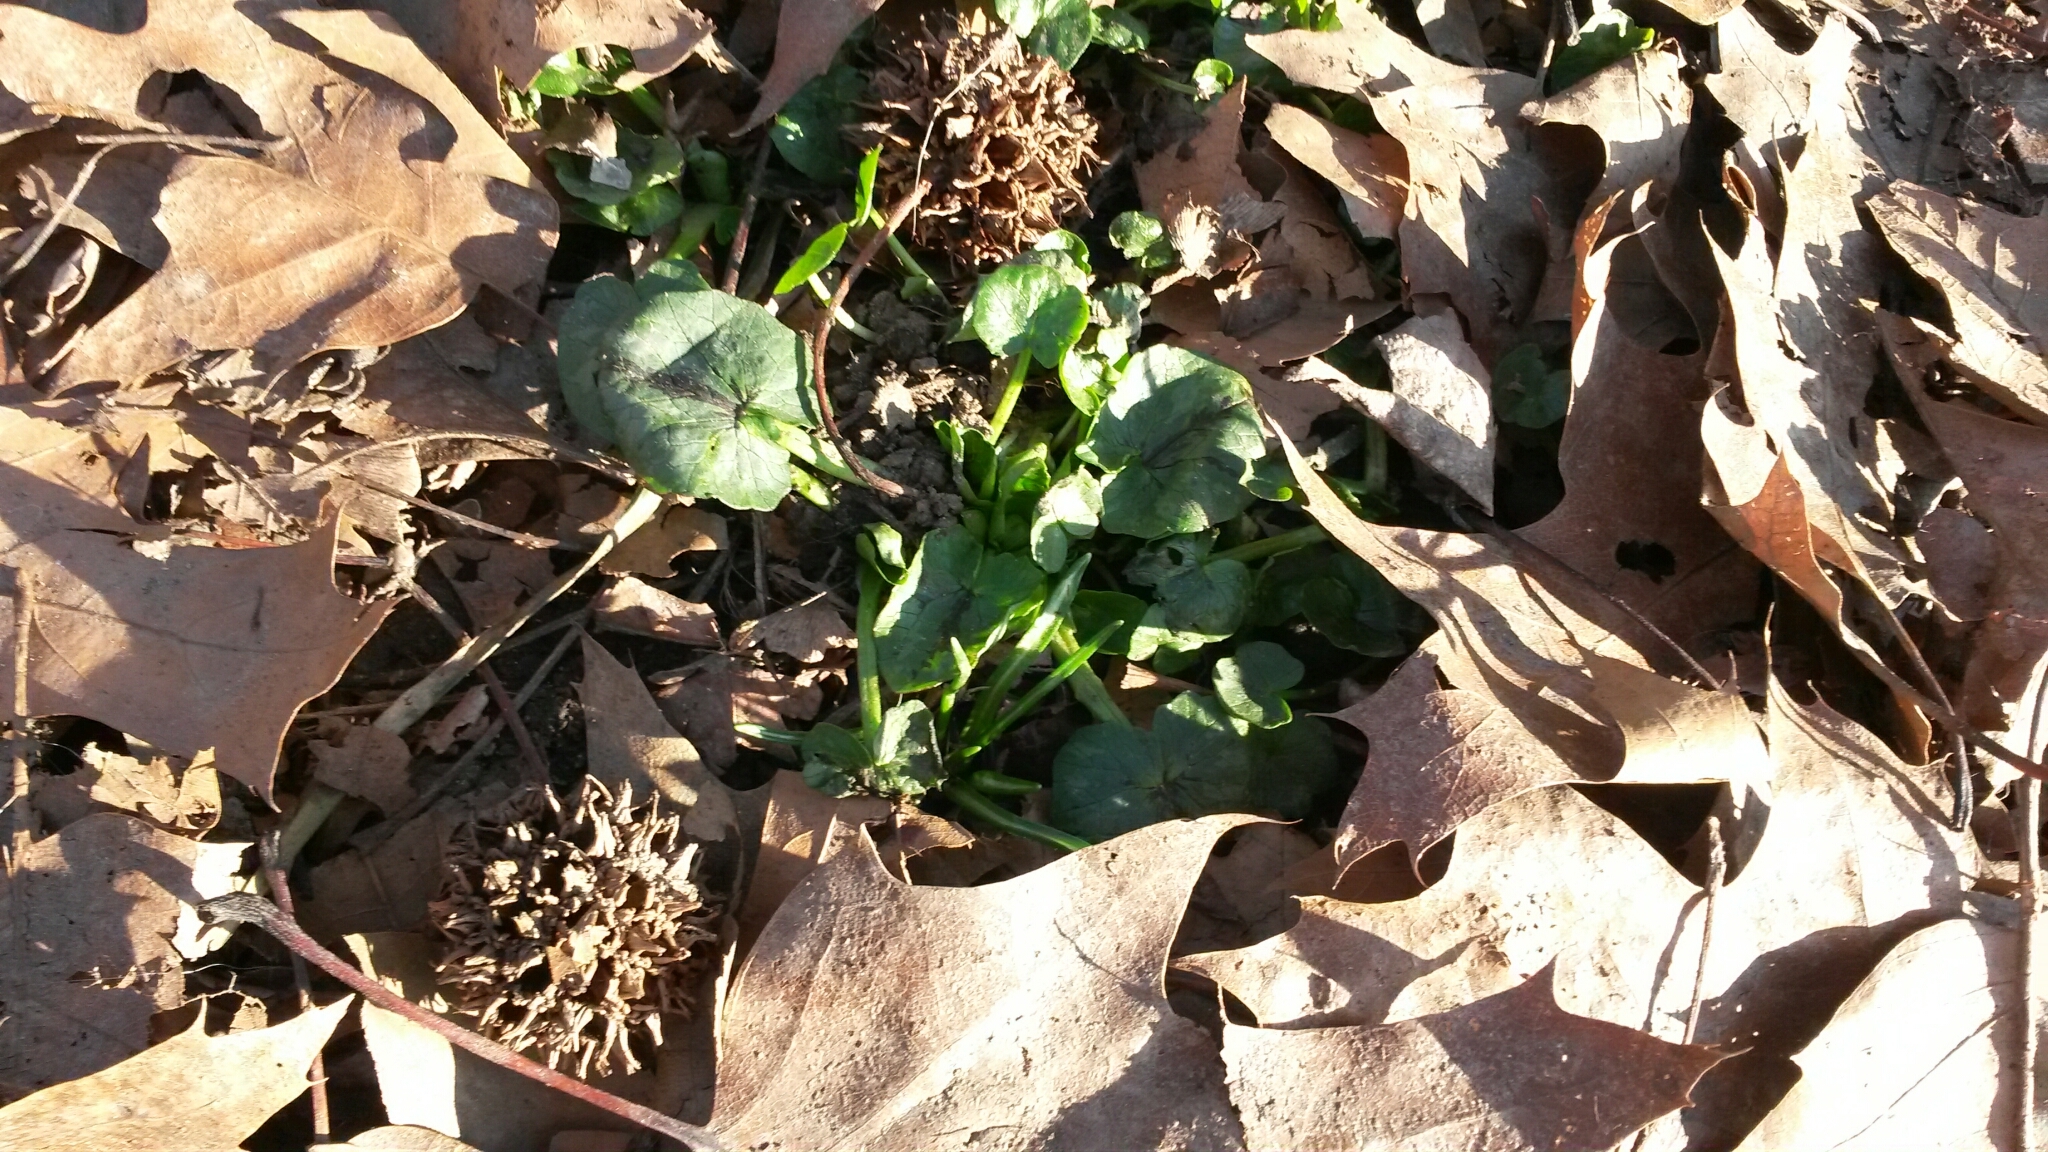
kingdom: Plantae
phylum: Tracheophyta
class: Magnoliopsida
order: Ranunculales
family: Ranunculaceae
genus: Ficaria
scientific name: Ficaria verna
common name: Lesser celandine
